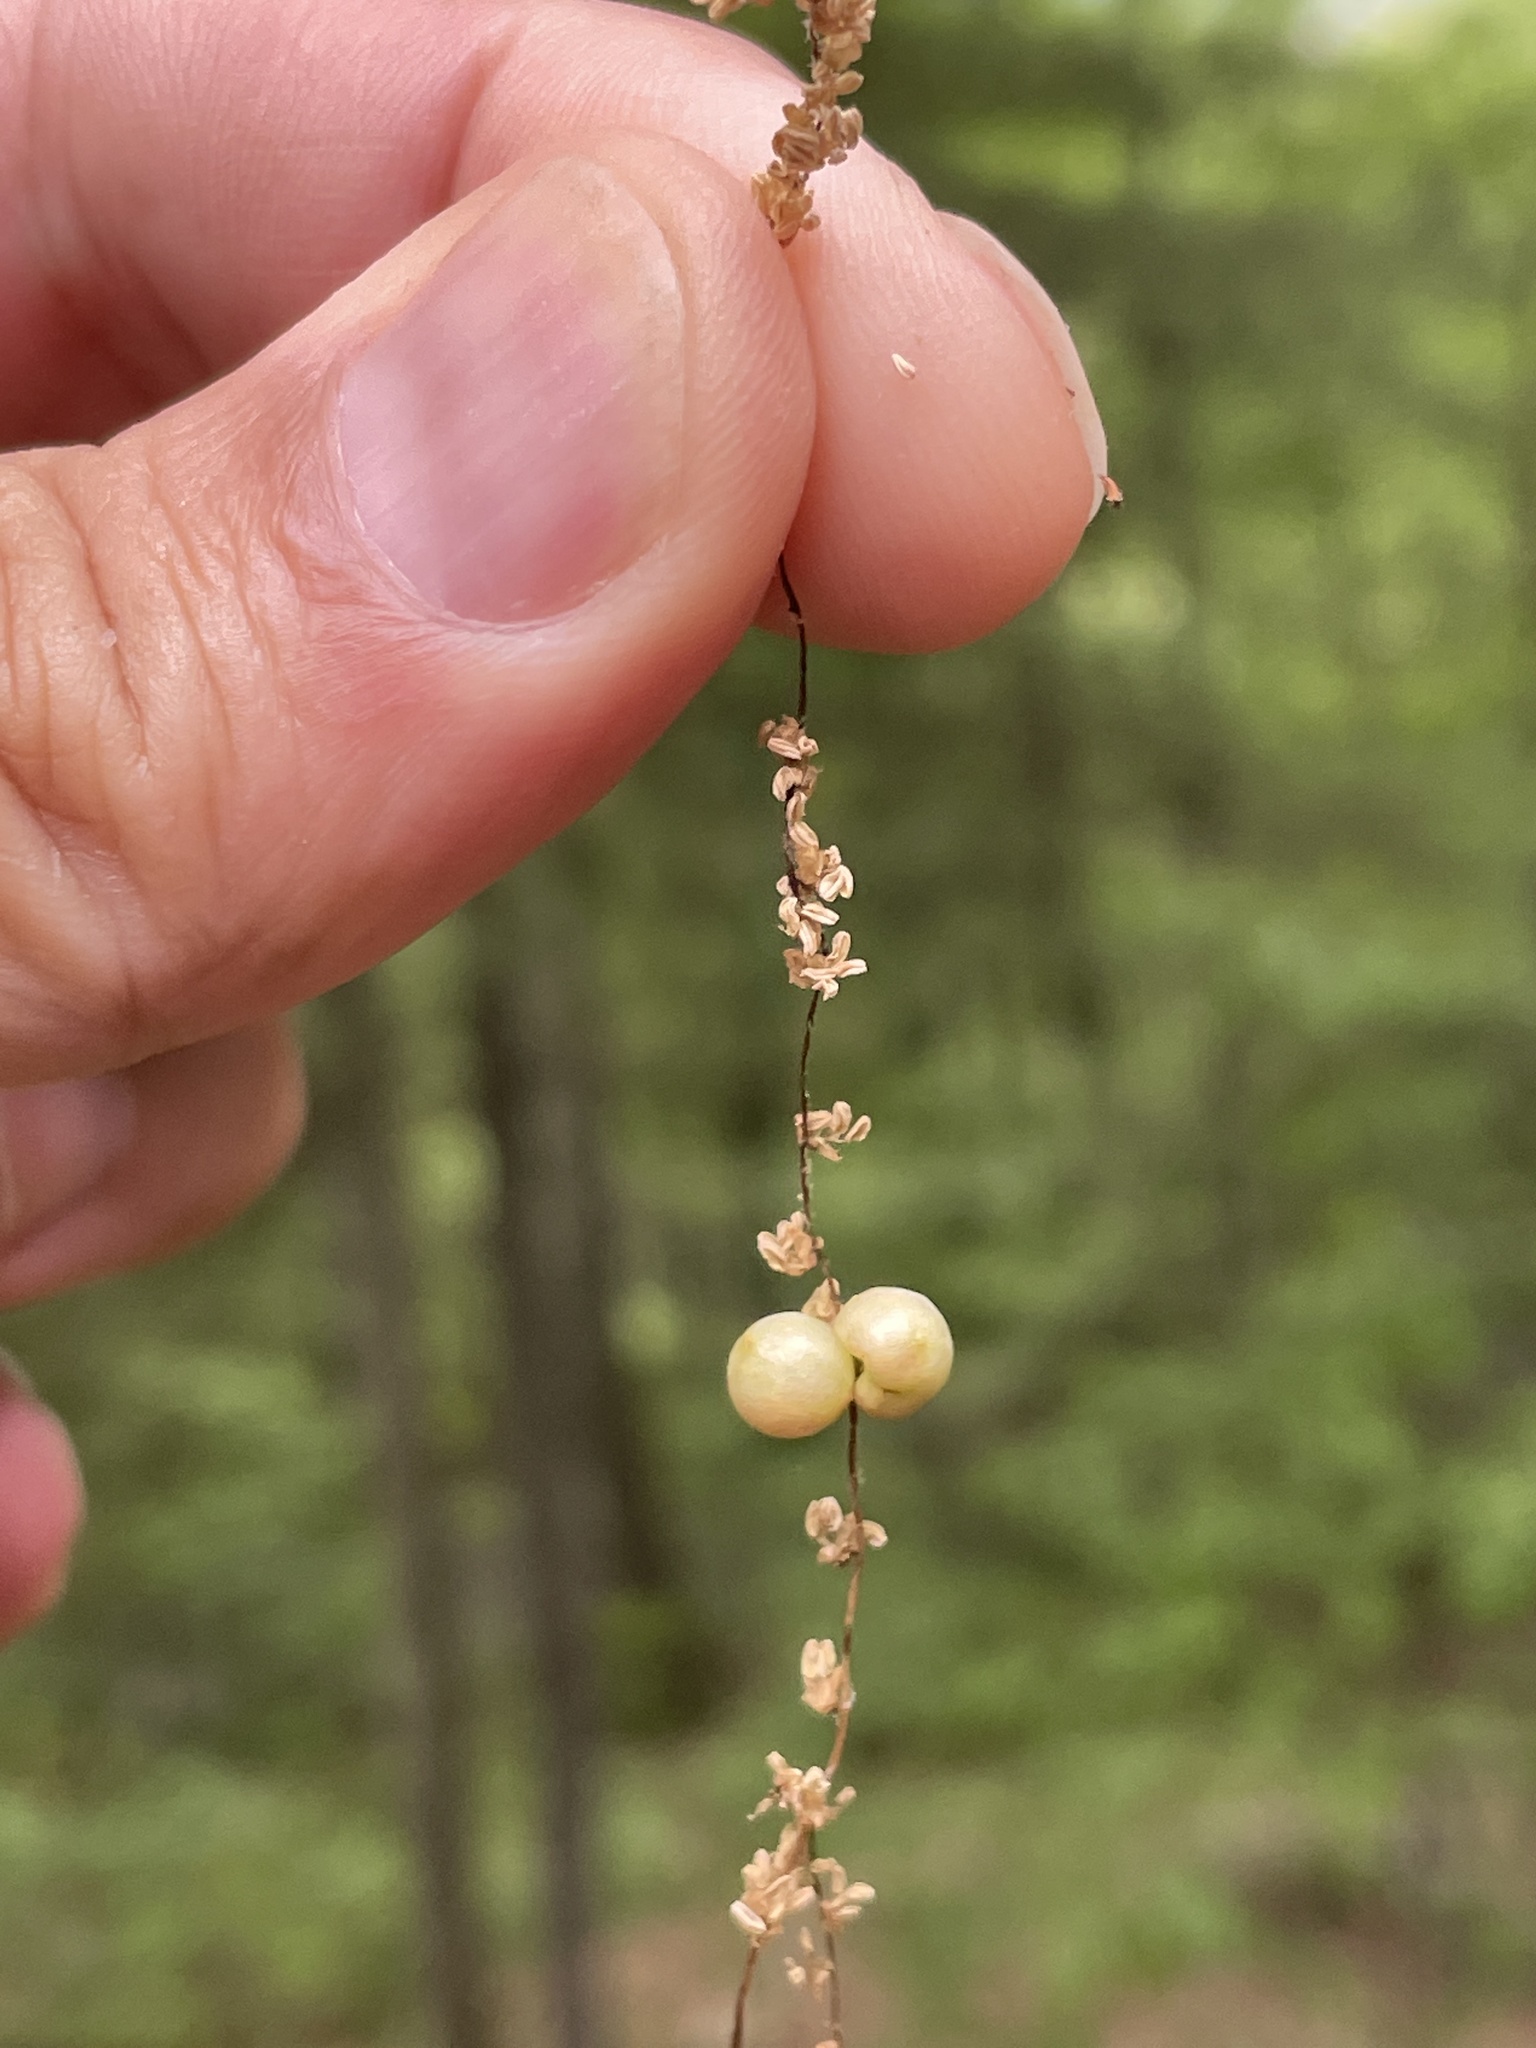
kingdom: Animalia
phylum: Arthropoda
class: Insecta
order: Hymenoptera
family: Cynipidae
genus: Callirhytis
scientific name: Callirhytis
